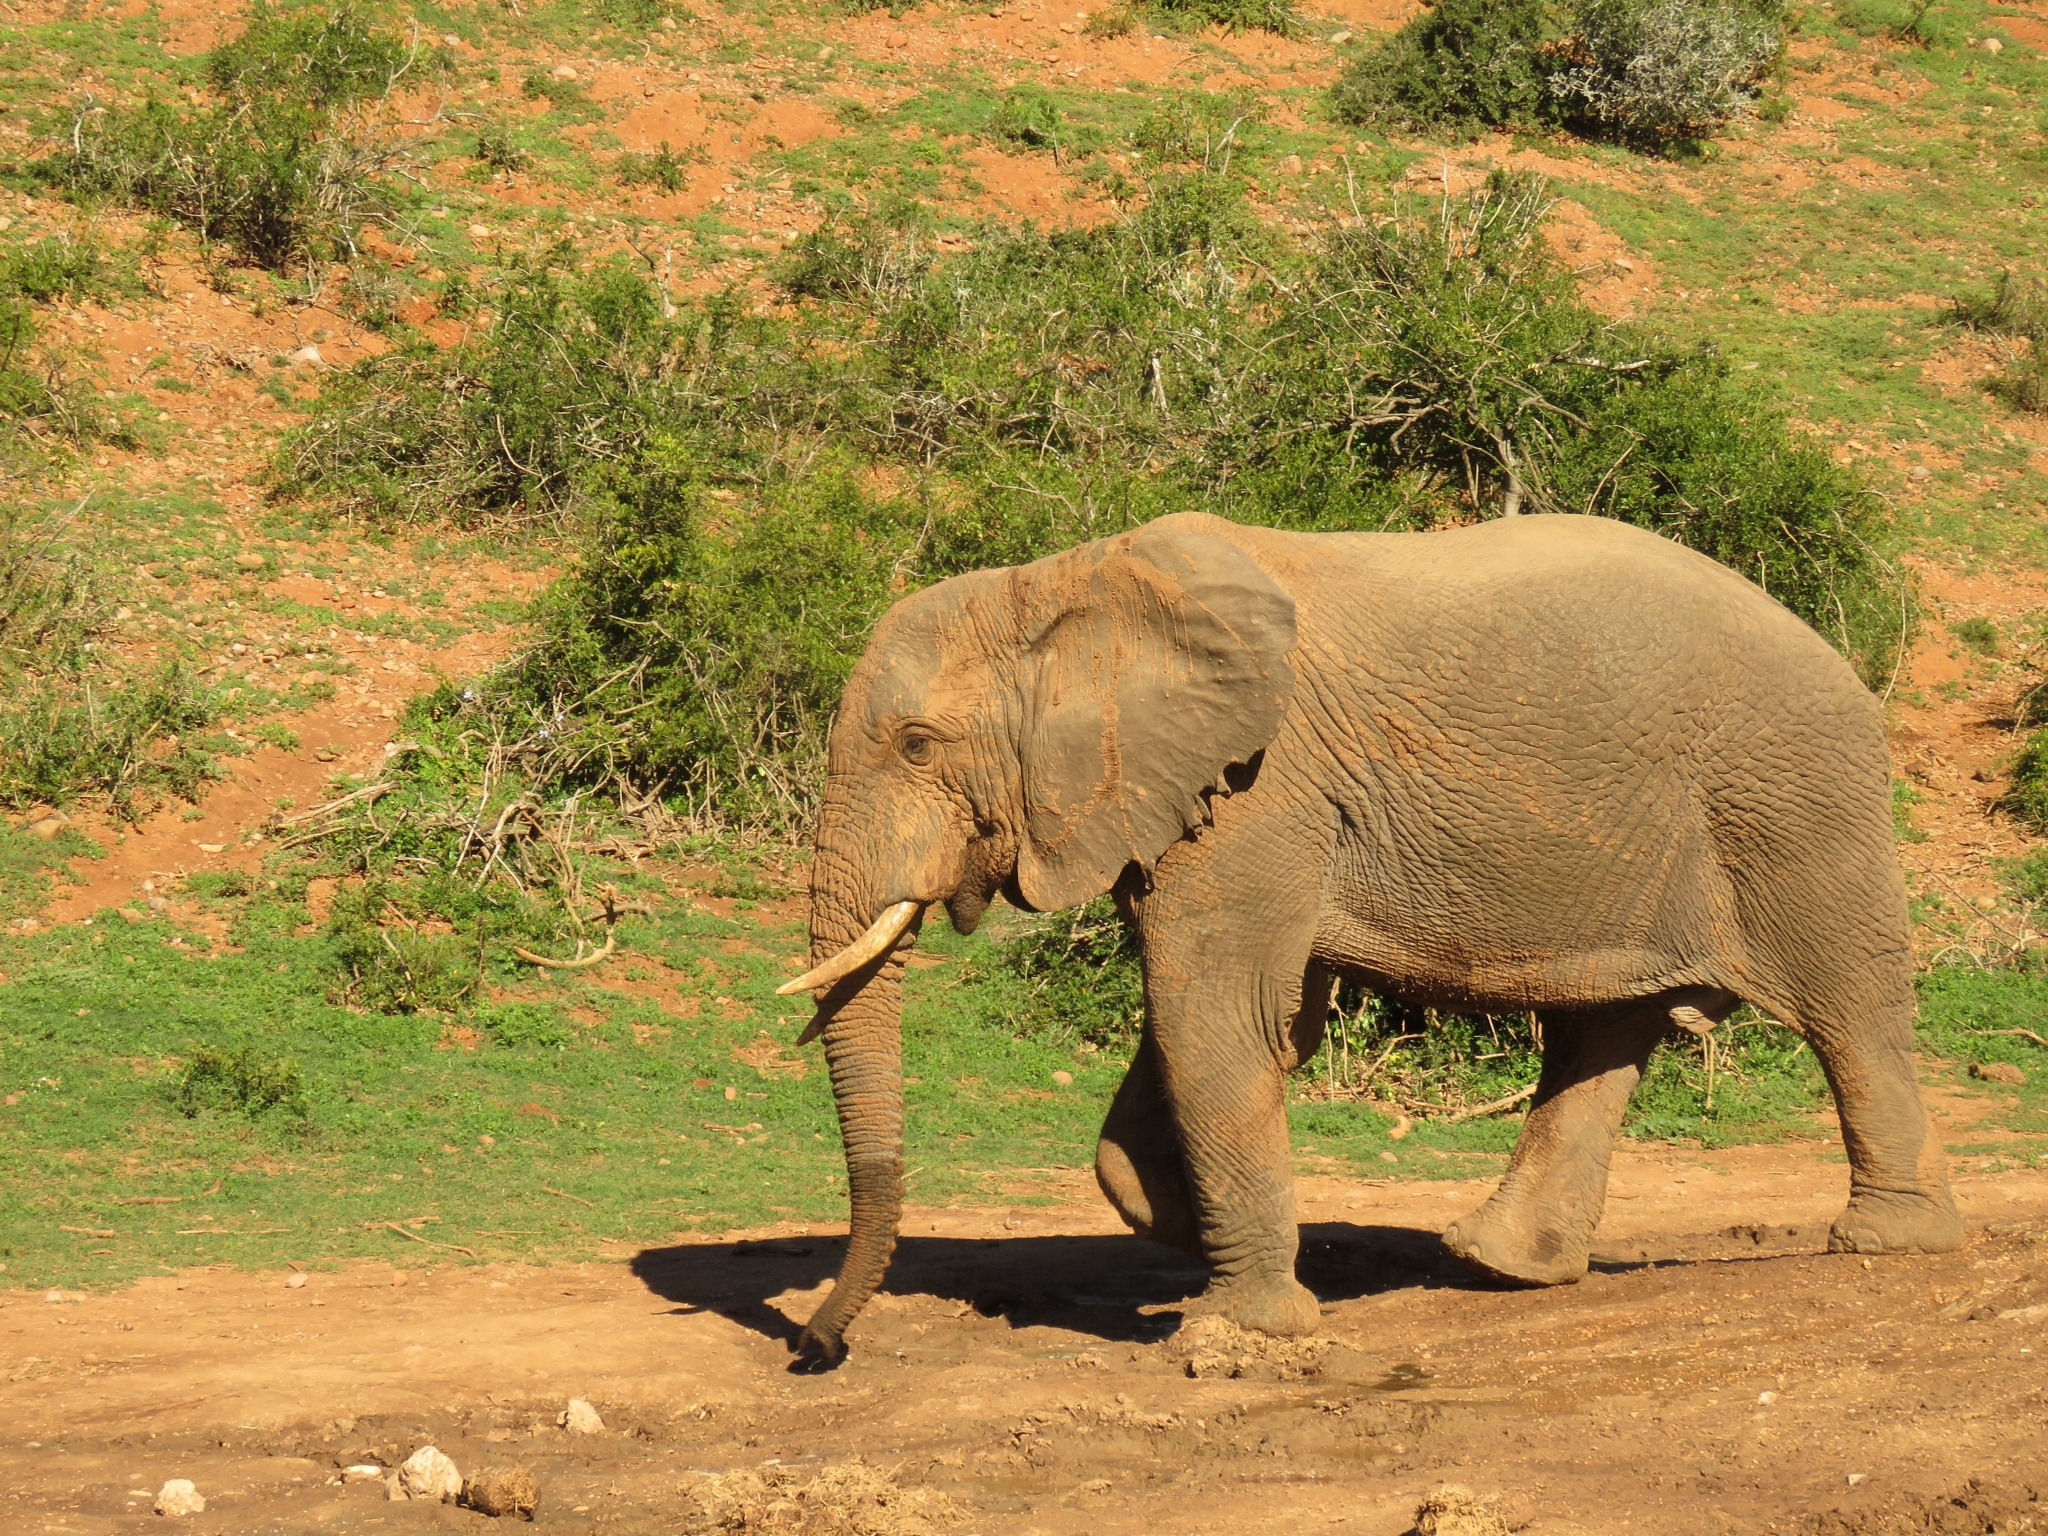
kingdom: Animalia
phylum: Chordata
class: Mammalia
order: Proboscidea
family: Elephantidae
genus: Loxodonta
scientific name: Loxodonta africana
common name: African elephant
